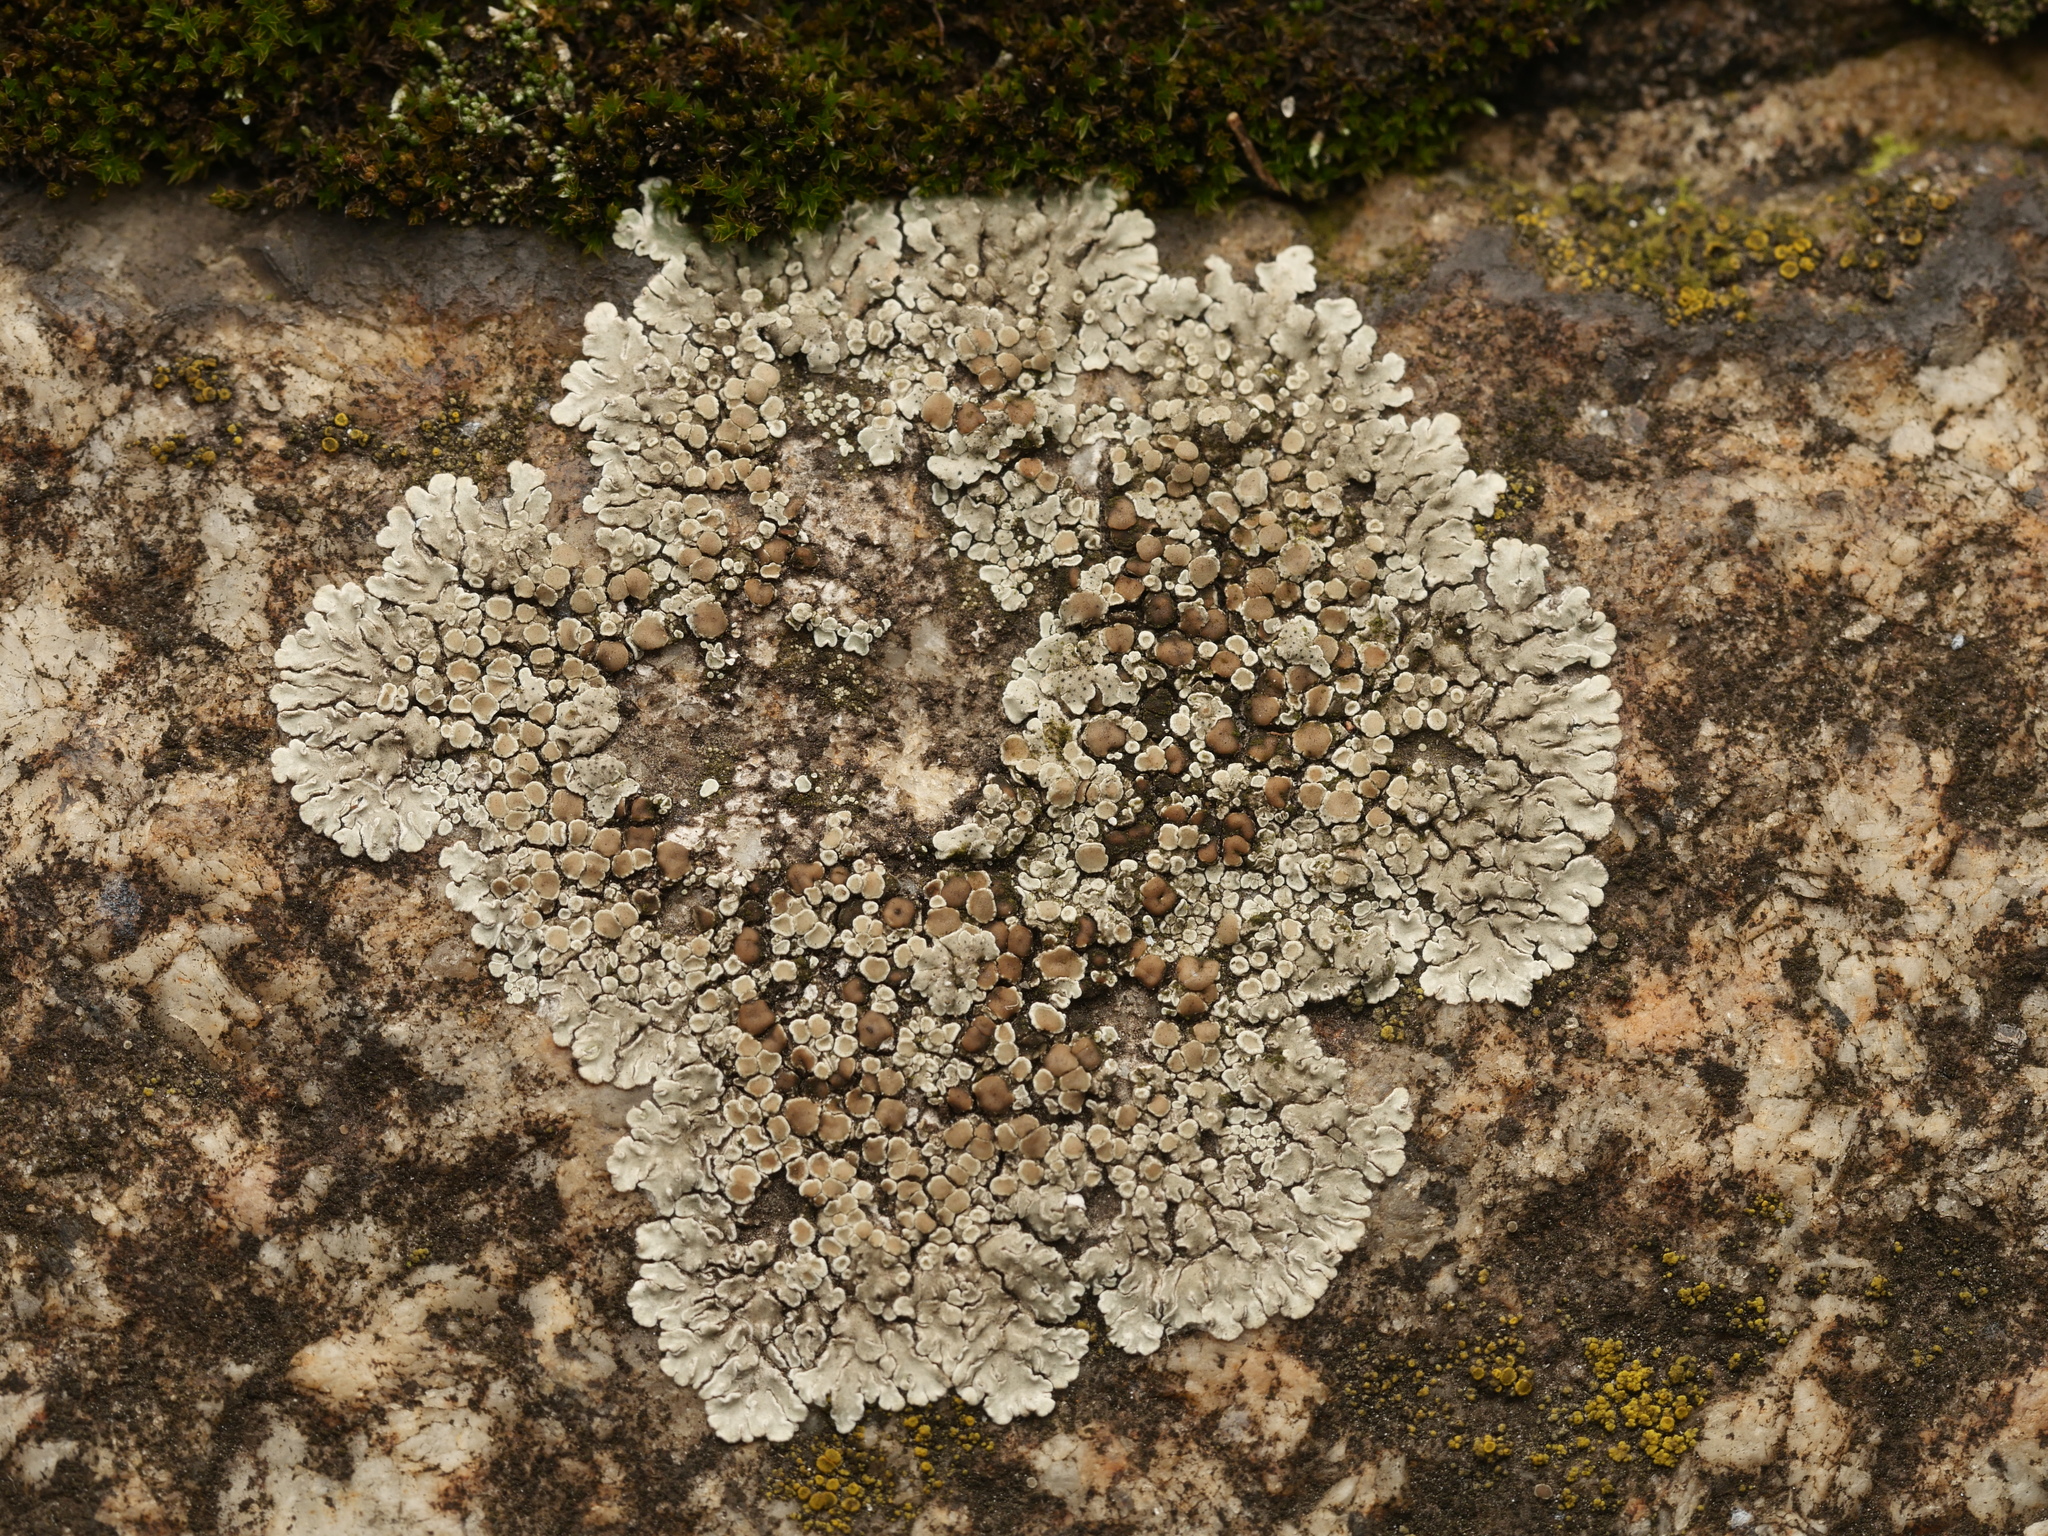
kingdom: Fungi
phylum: Ascomycota
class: Lecanoromycetes
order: Lecanorales
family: Lecanoraceae
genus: Protoparmeliopsis
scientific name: Protoparmeliopsis muralis
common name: Stonewall rim lichen
